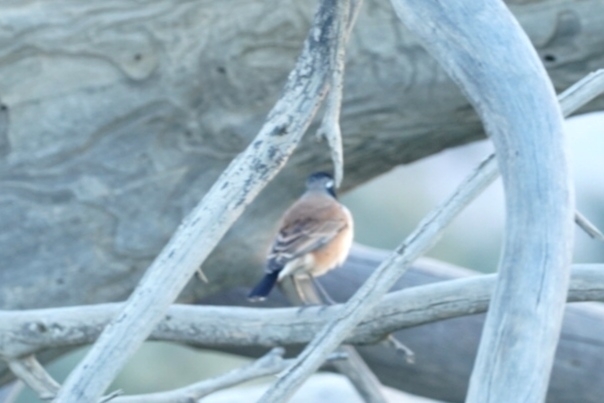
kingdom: Animalia
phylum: Chordata
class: Aves
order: Passeriformes
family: Muscicapidae
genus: Oenanthe
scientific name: Oenanthe pileata
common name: Capped wheatear
